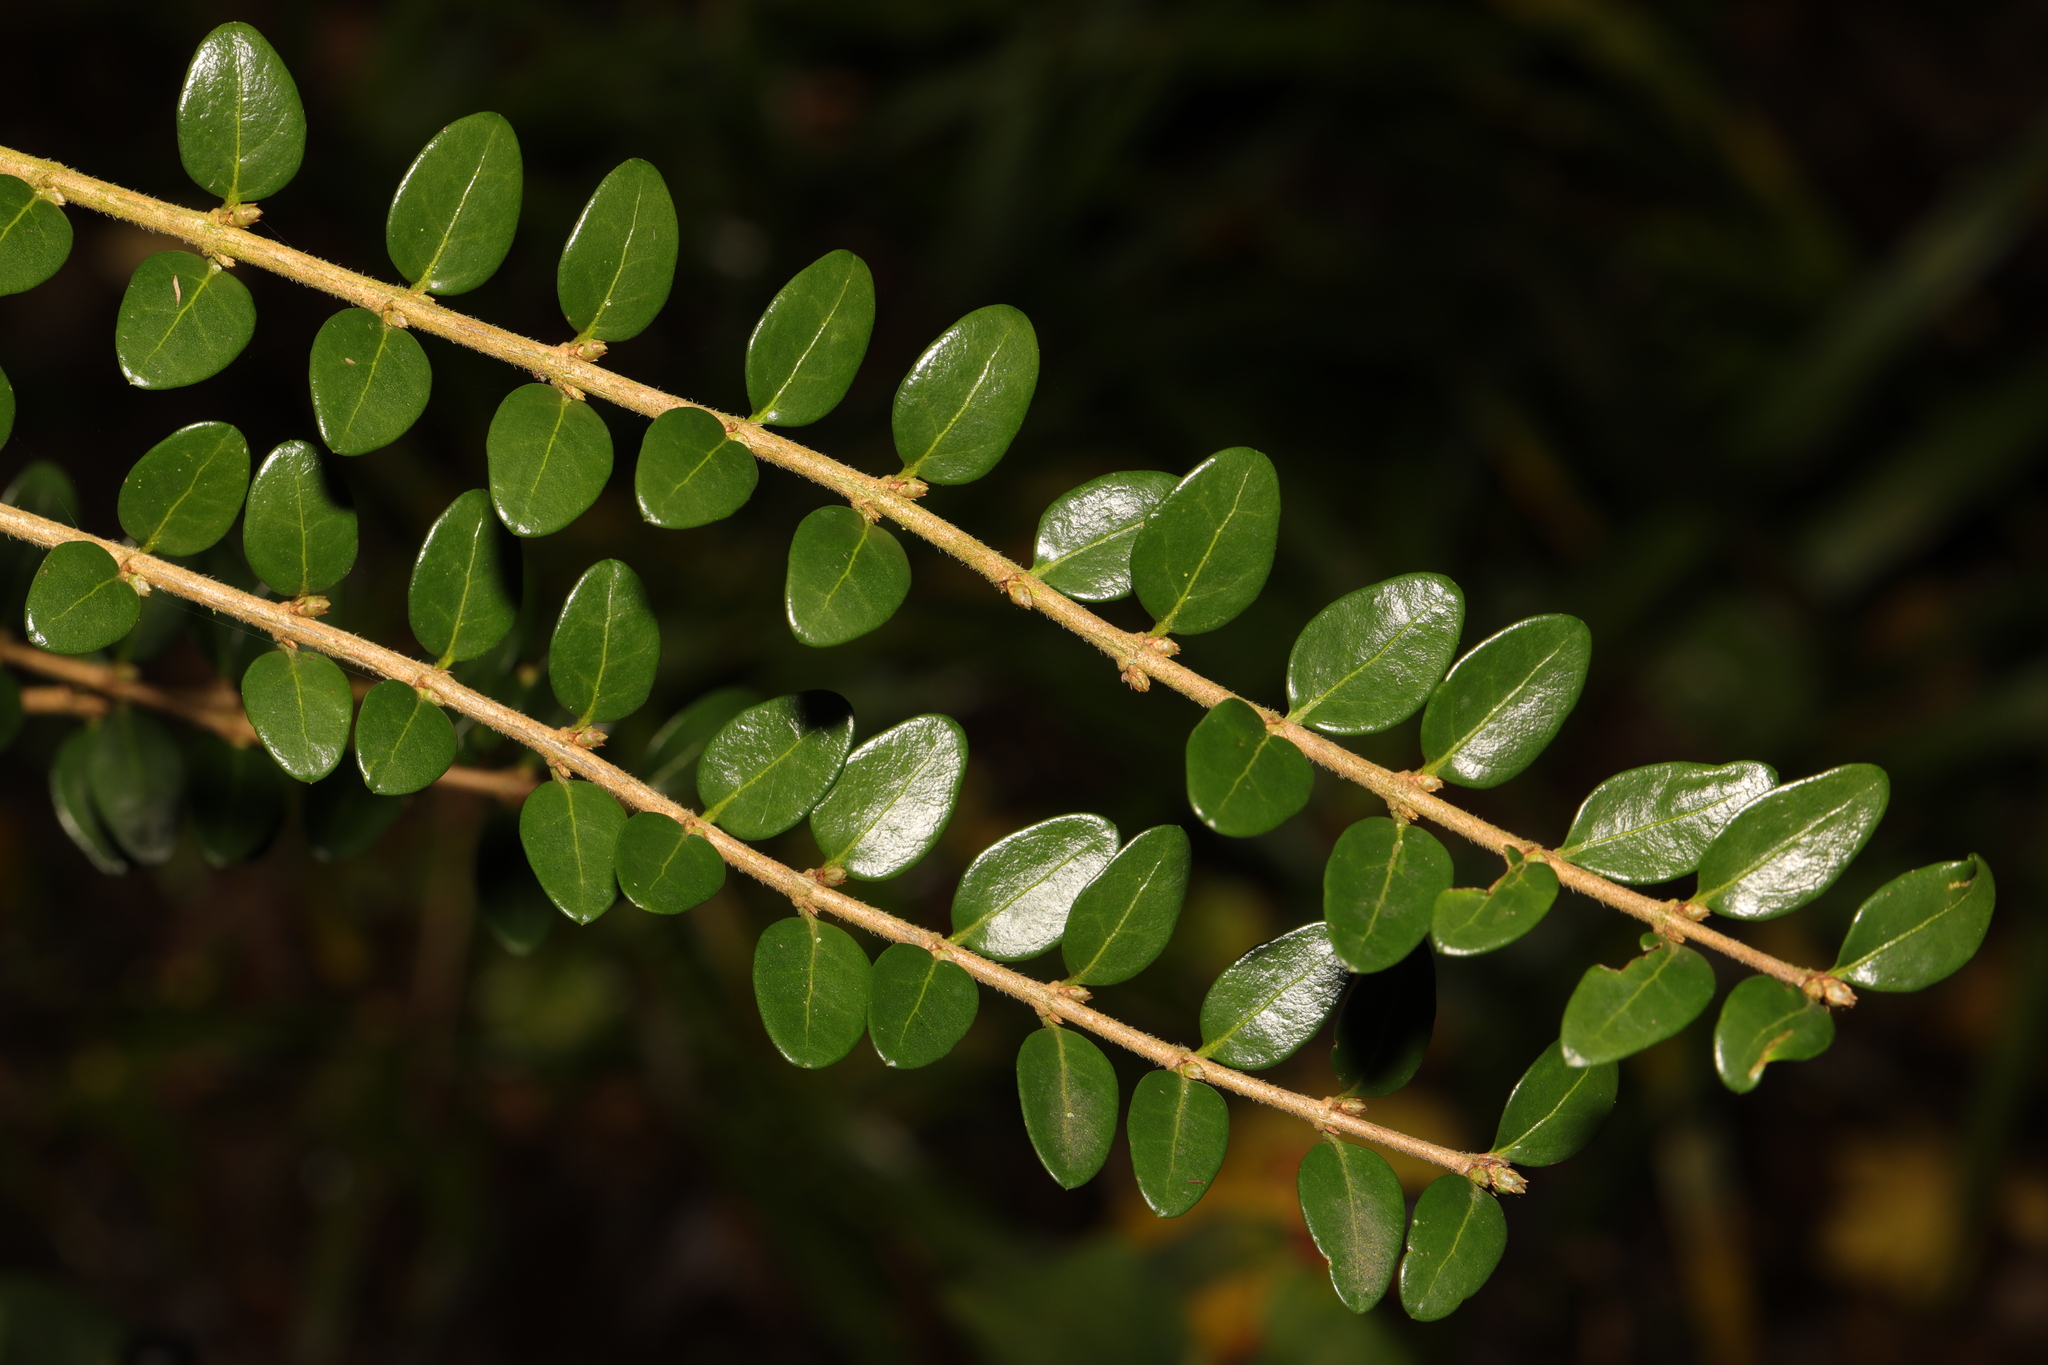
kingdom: Plantae
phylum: Tracheophyta
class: Magnoliopsida
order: Dipsacales
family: Caprifoliaceae
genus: Lonicera
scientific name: Lonicera pileata
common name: Box-leaved honeysuckle
